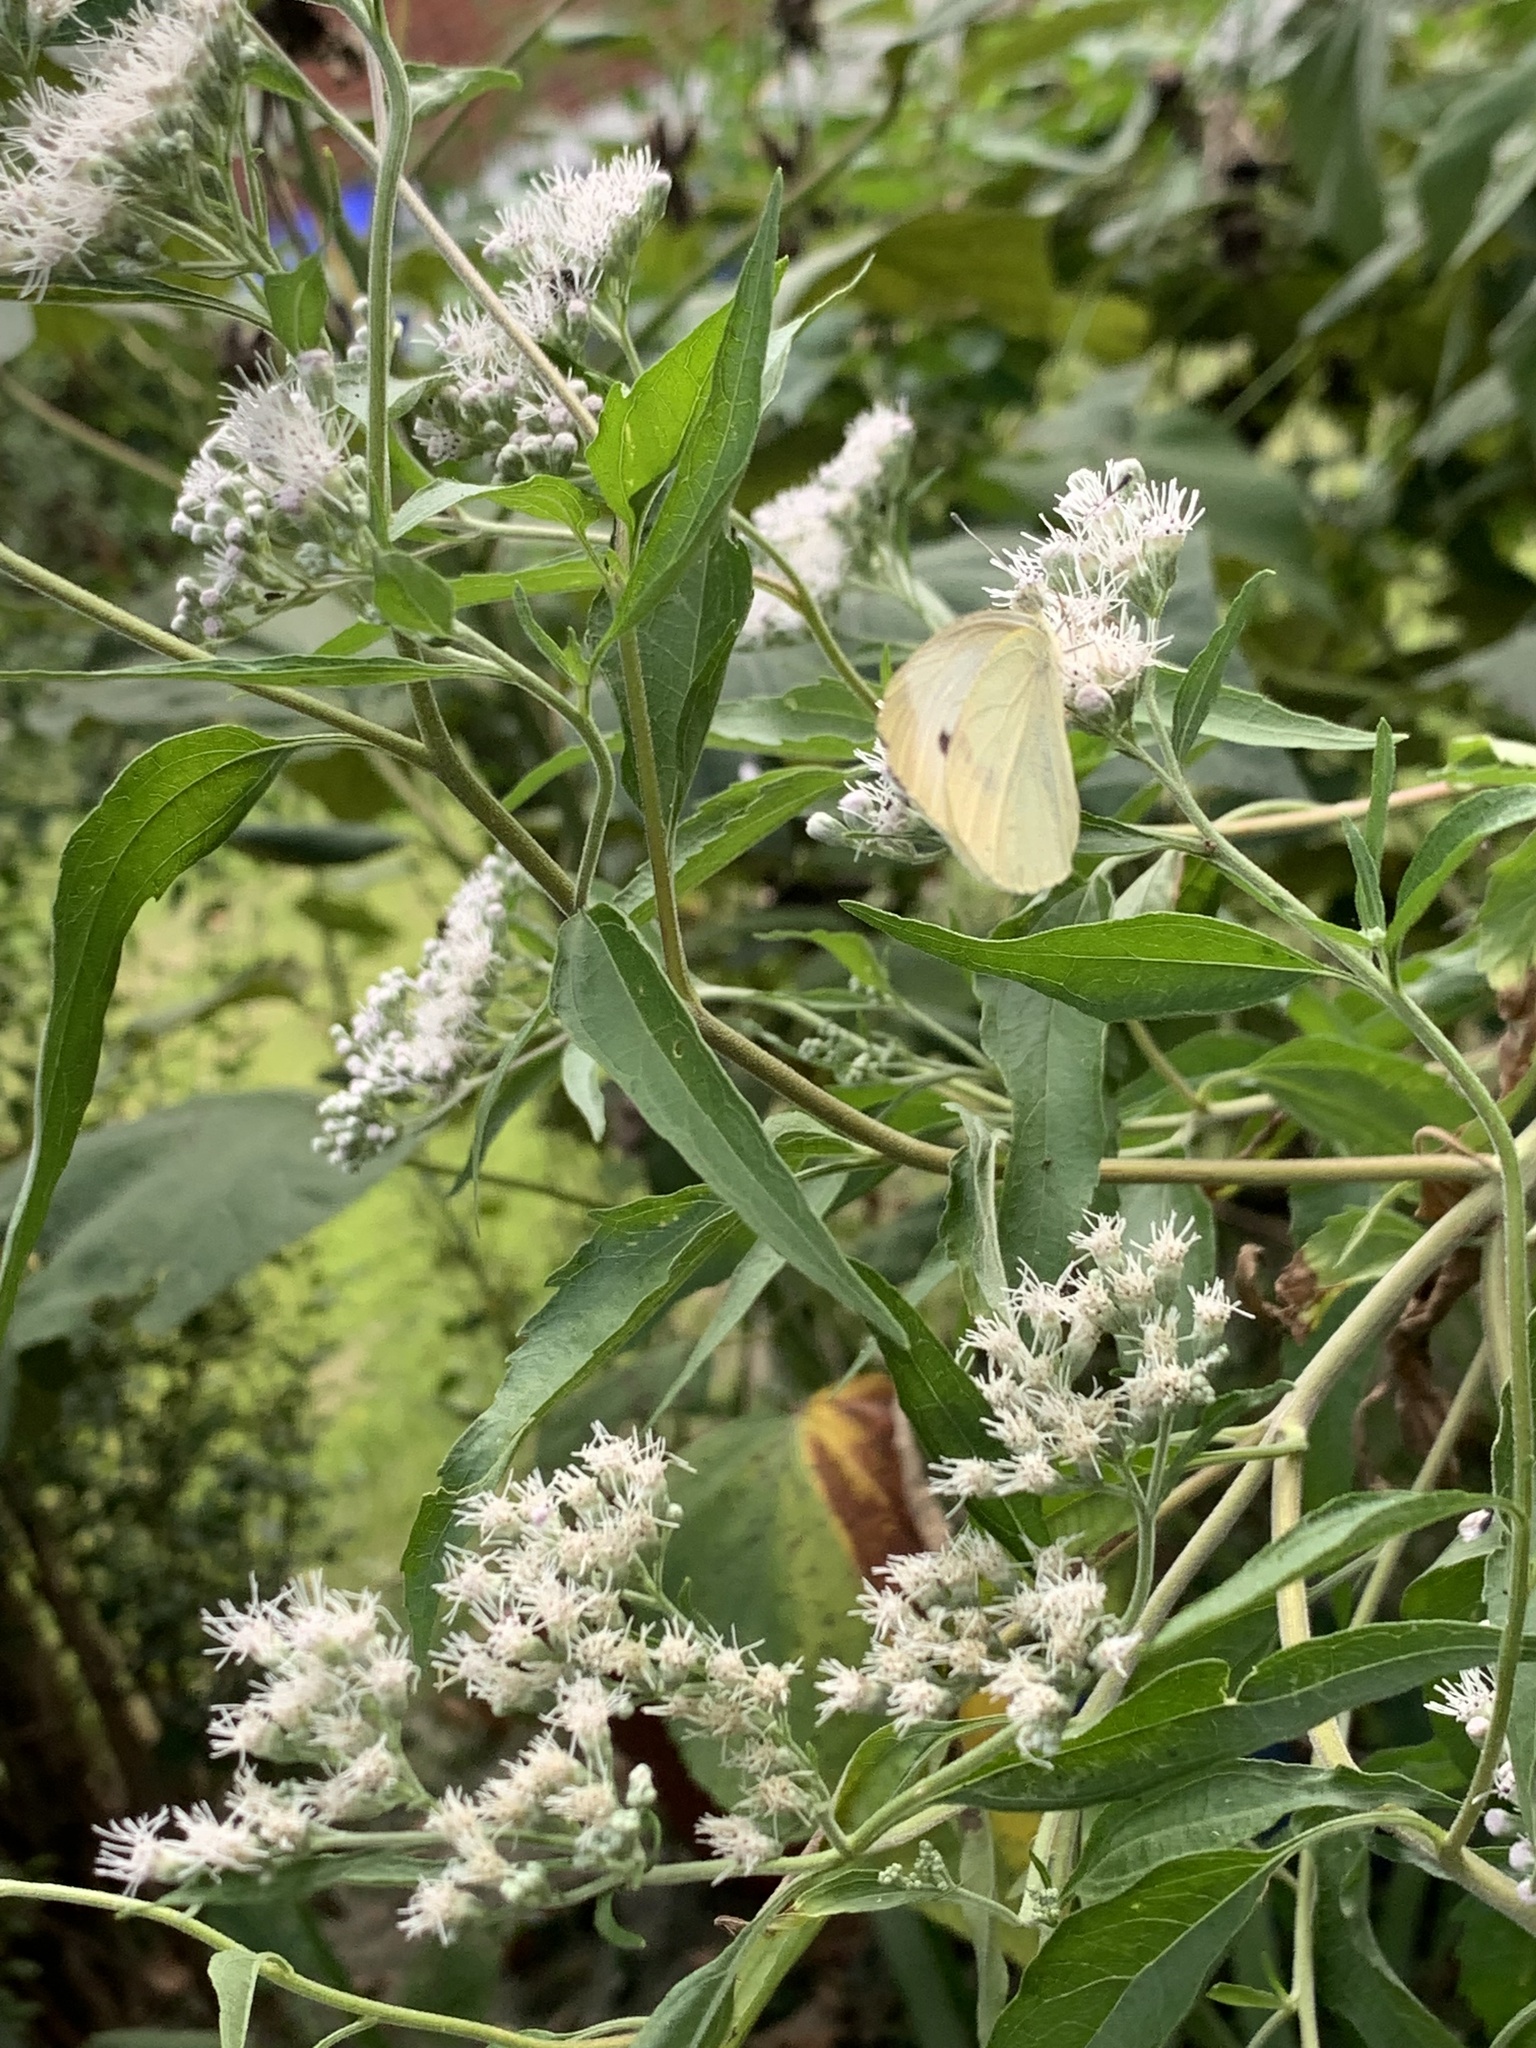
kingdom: Animalia
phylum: Arthropoda
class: Insecta
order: Lepidoptera
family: Pieridae
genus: Pieris
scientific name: Pieris rapae
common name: Small white
